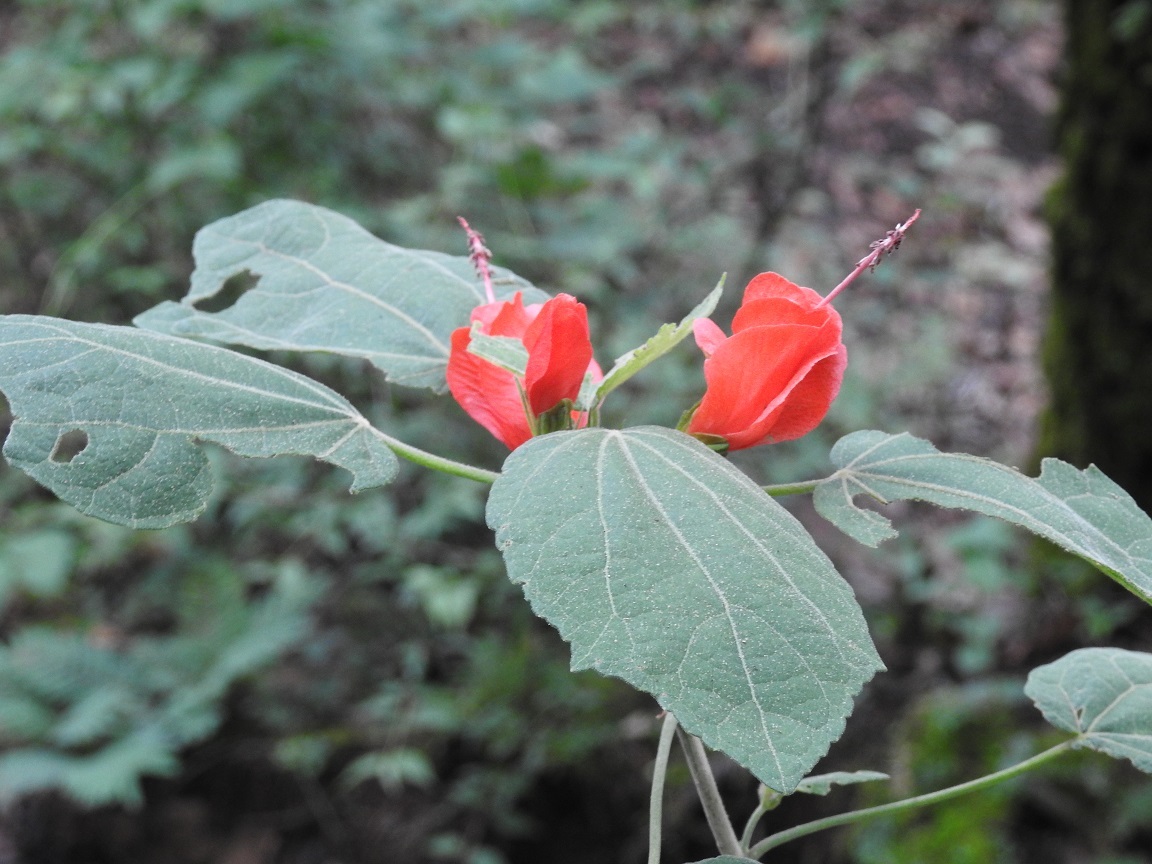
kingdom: Plantae
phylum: Tracheophyta
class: Magnoliopsida
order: Malvales
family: Malvaceae
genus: Malvaviscus
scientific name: Malvaviscus arboreus
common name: Wax mallow
